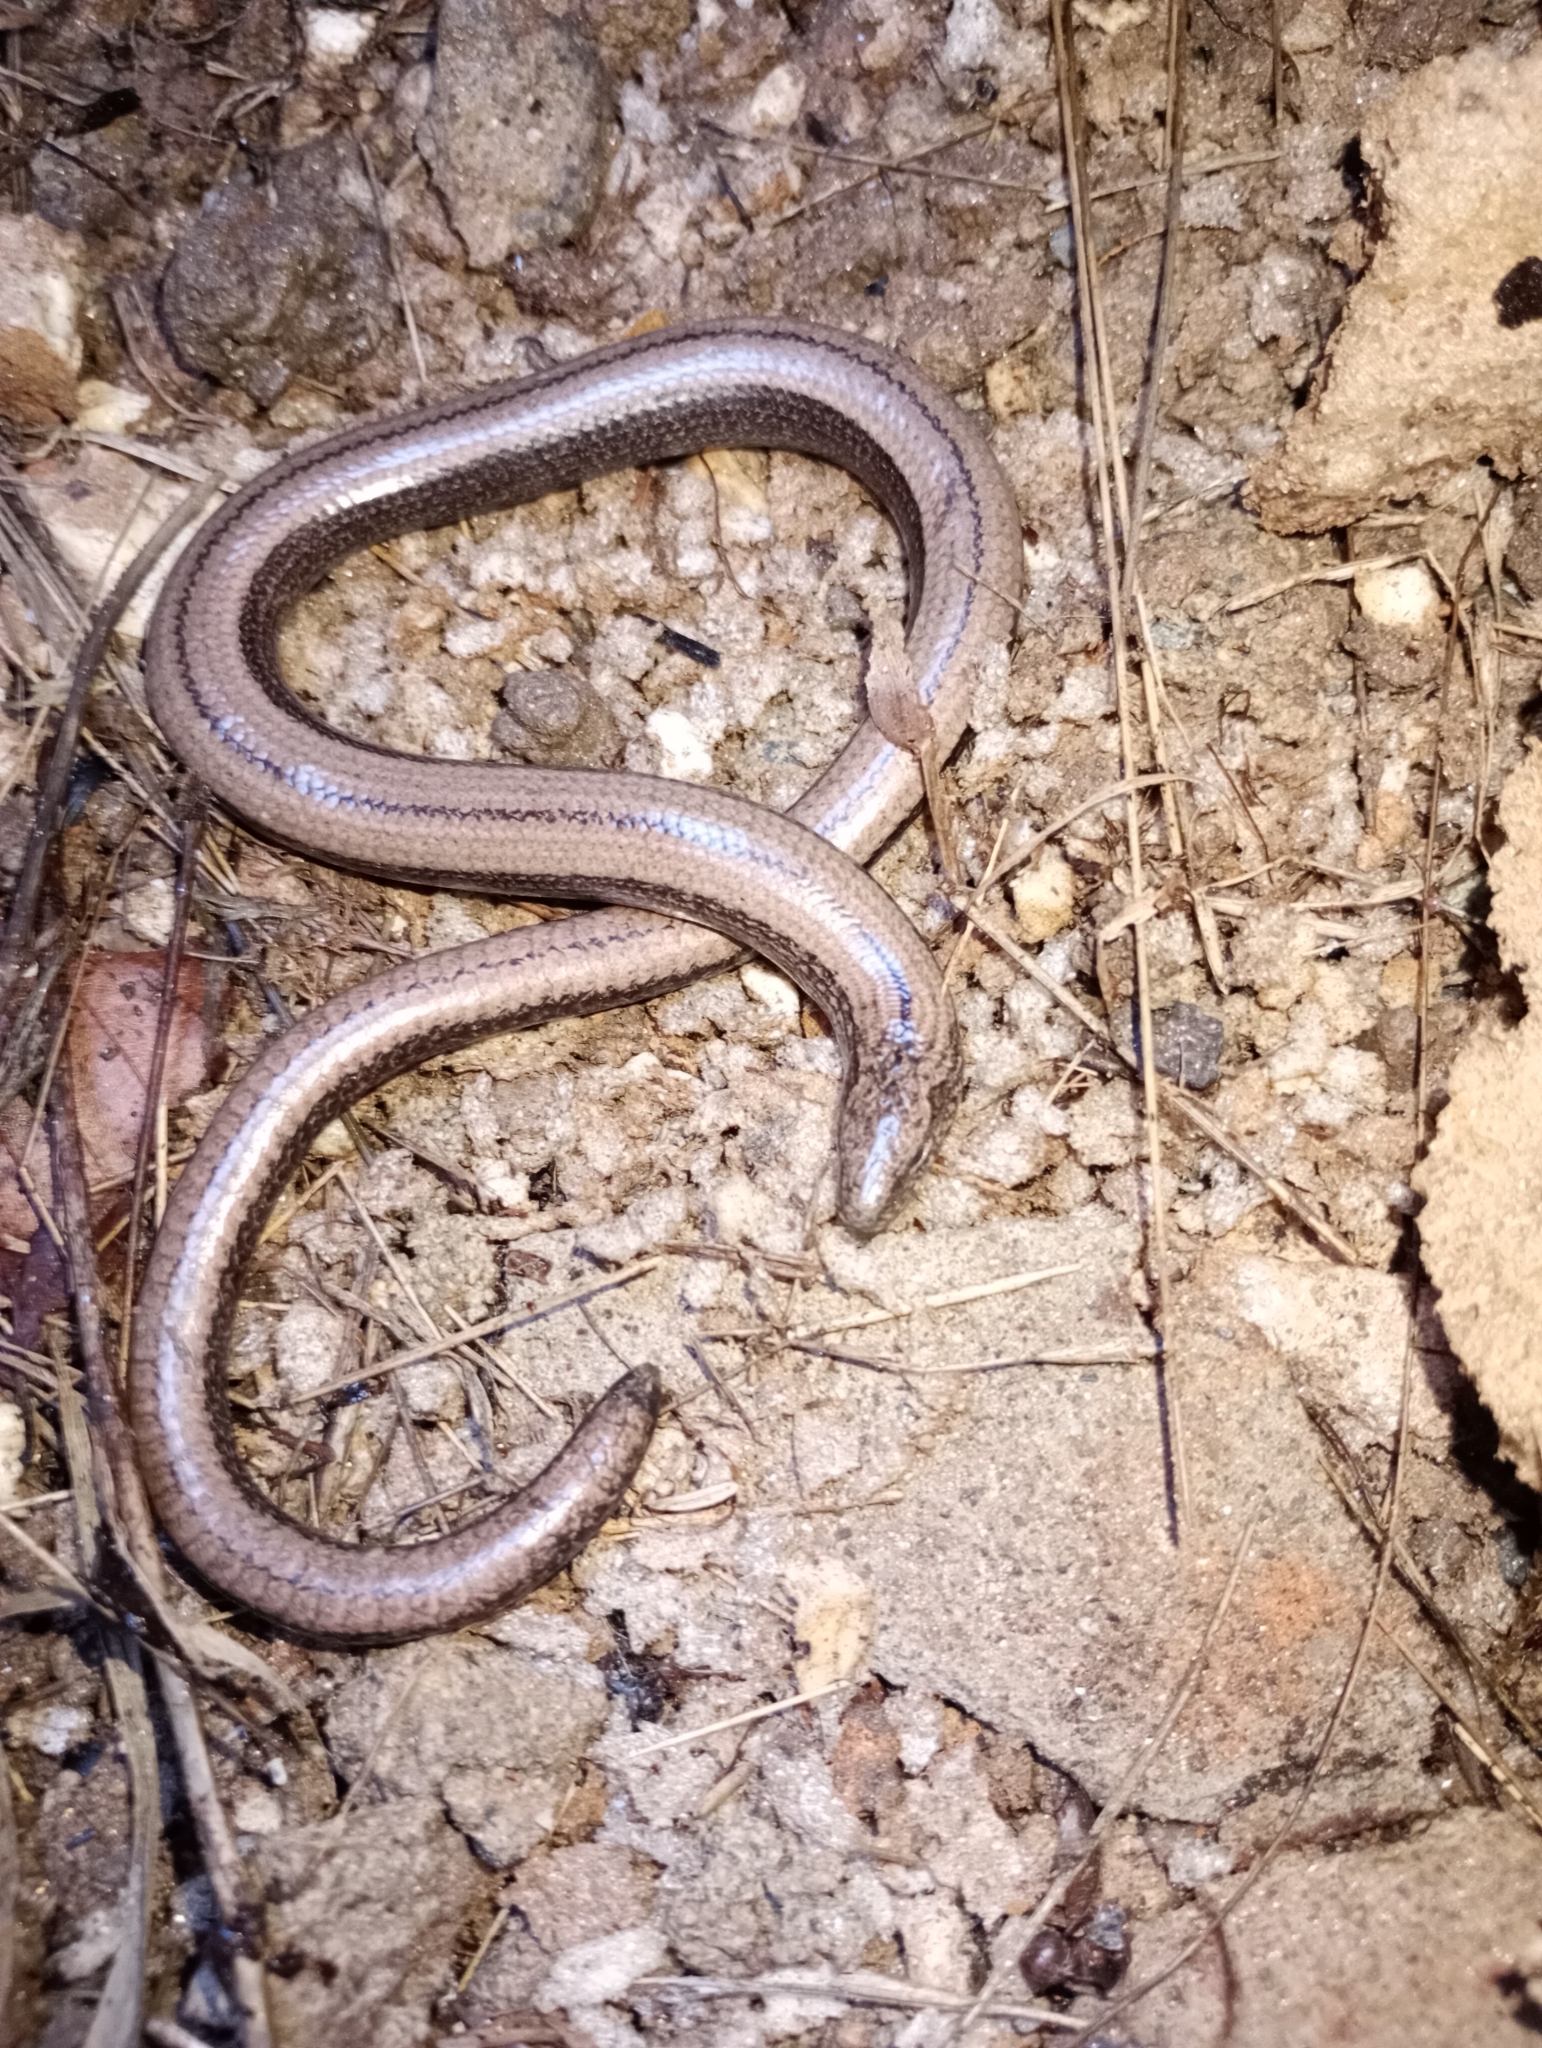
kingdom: Animalia
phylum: Chordata
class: Squamata
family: Anguidae
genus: Anguis
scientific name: Anguis veronensis
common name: Italian slow worm
